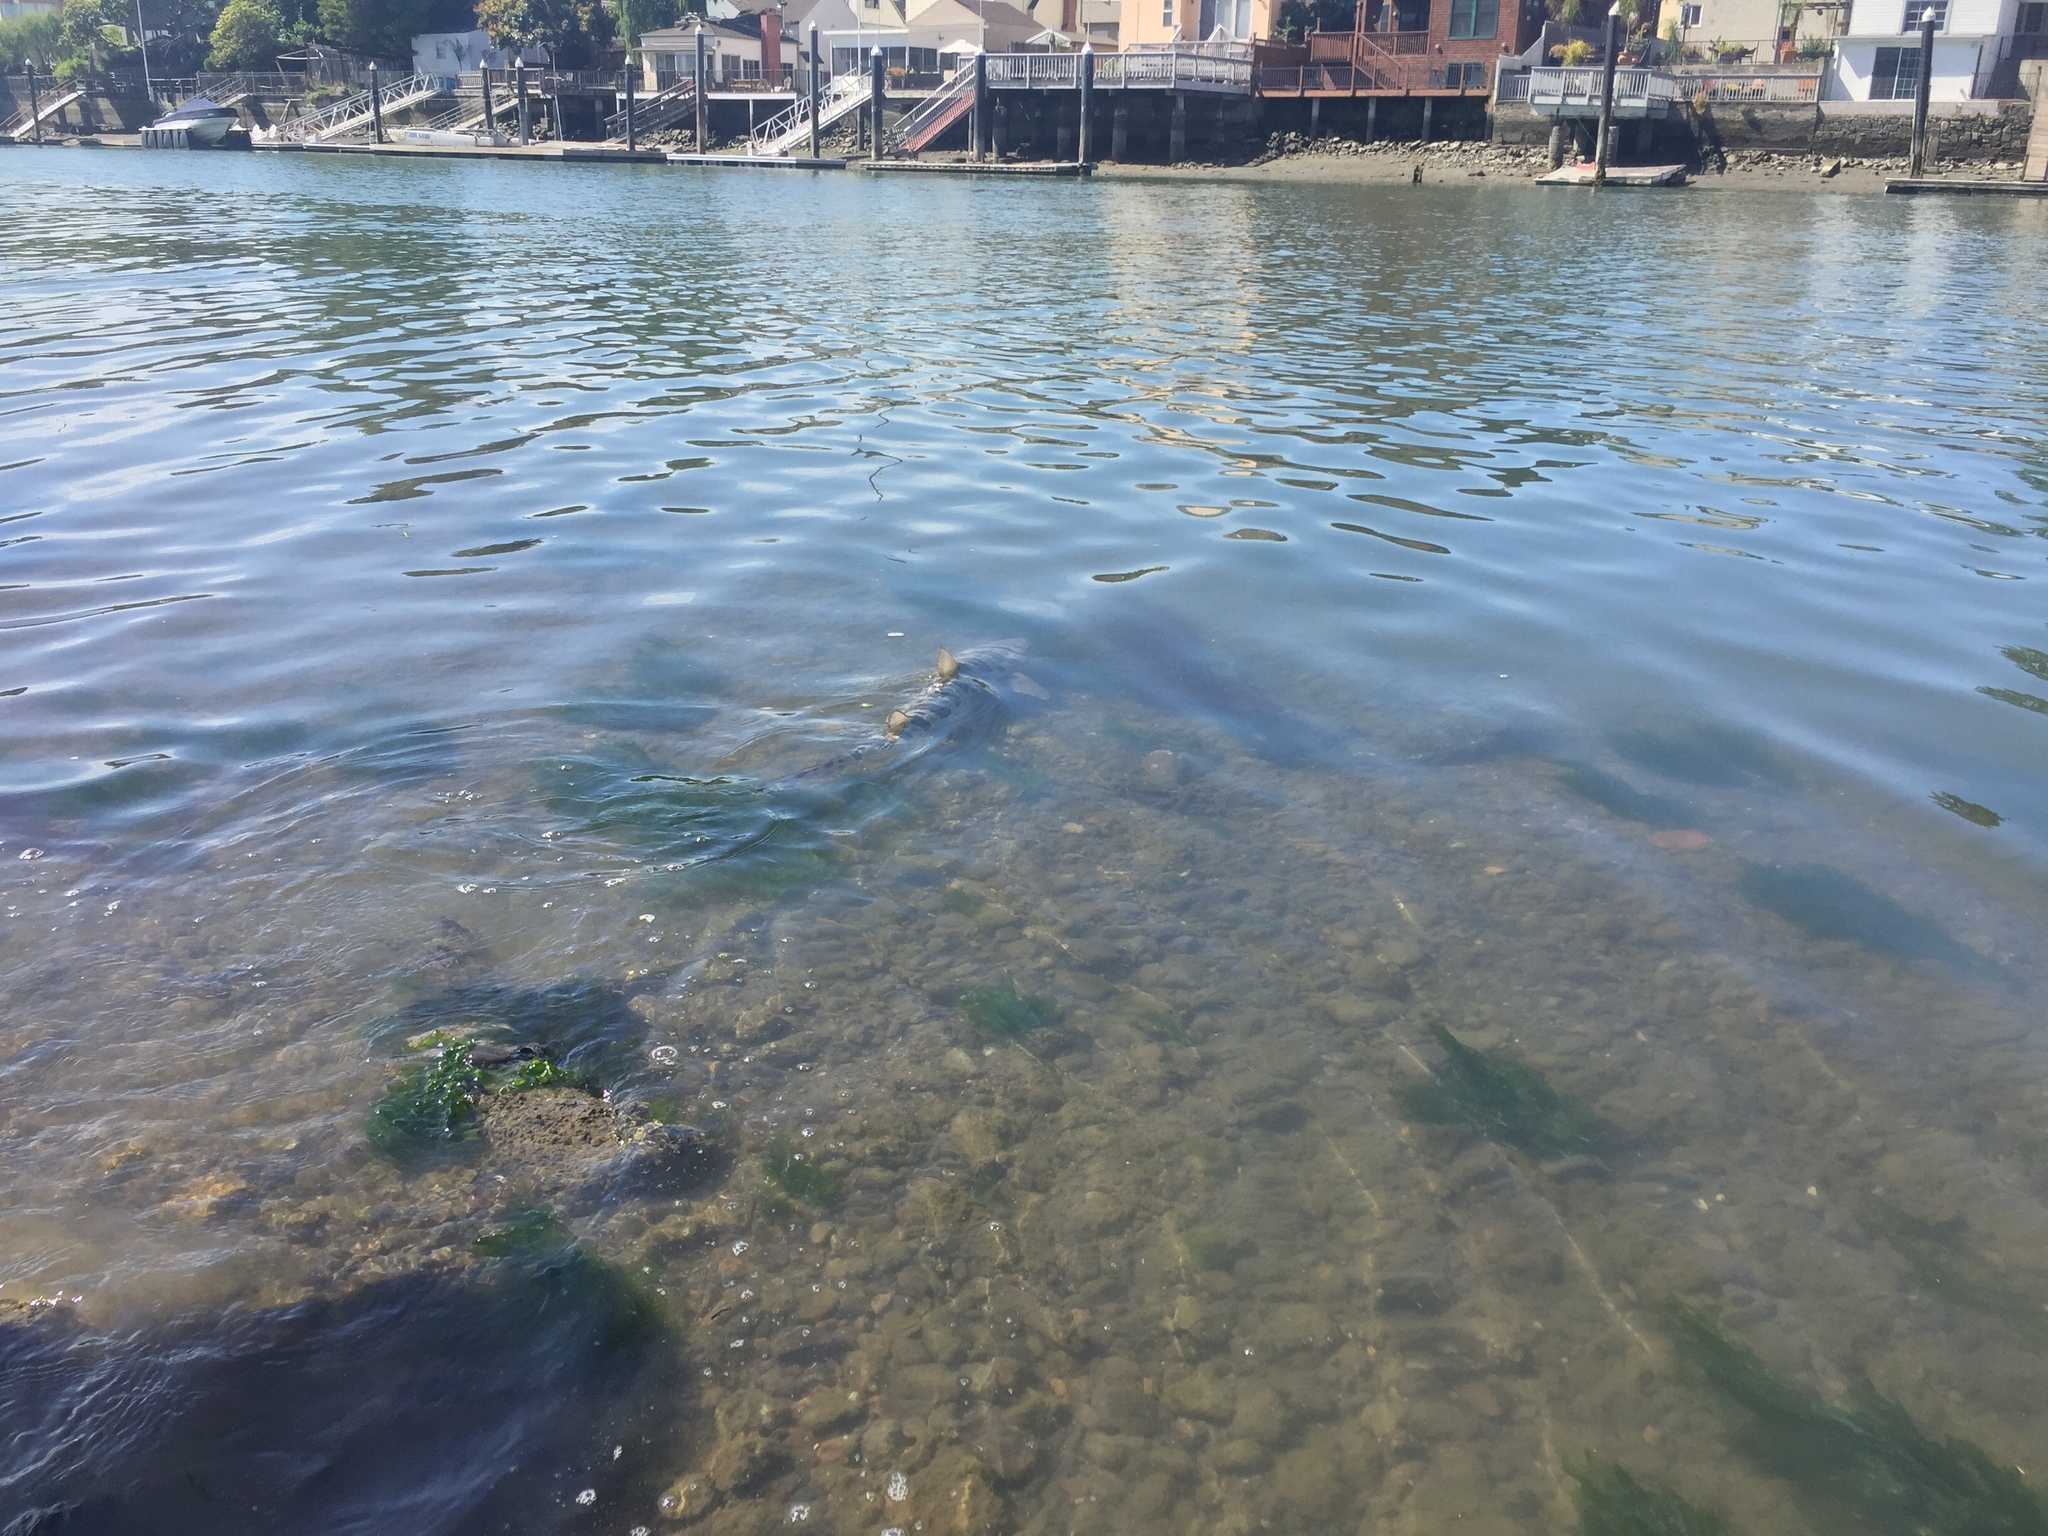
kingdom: Animalia
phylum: Chordata
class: Elasmobranchii
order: Carcharhiniformes
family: Triakidae
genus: Triakis
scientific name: Triakis semifasciata
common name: Leopard shark
